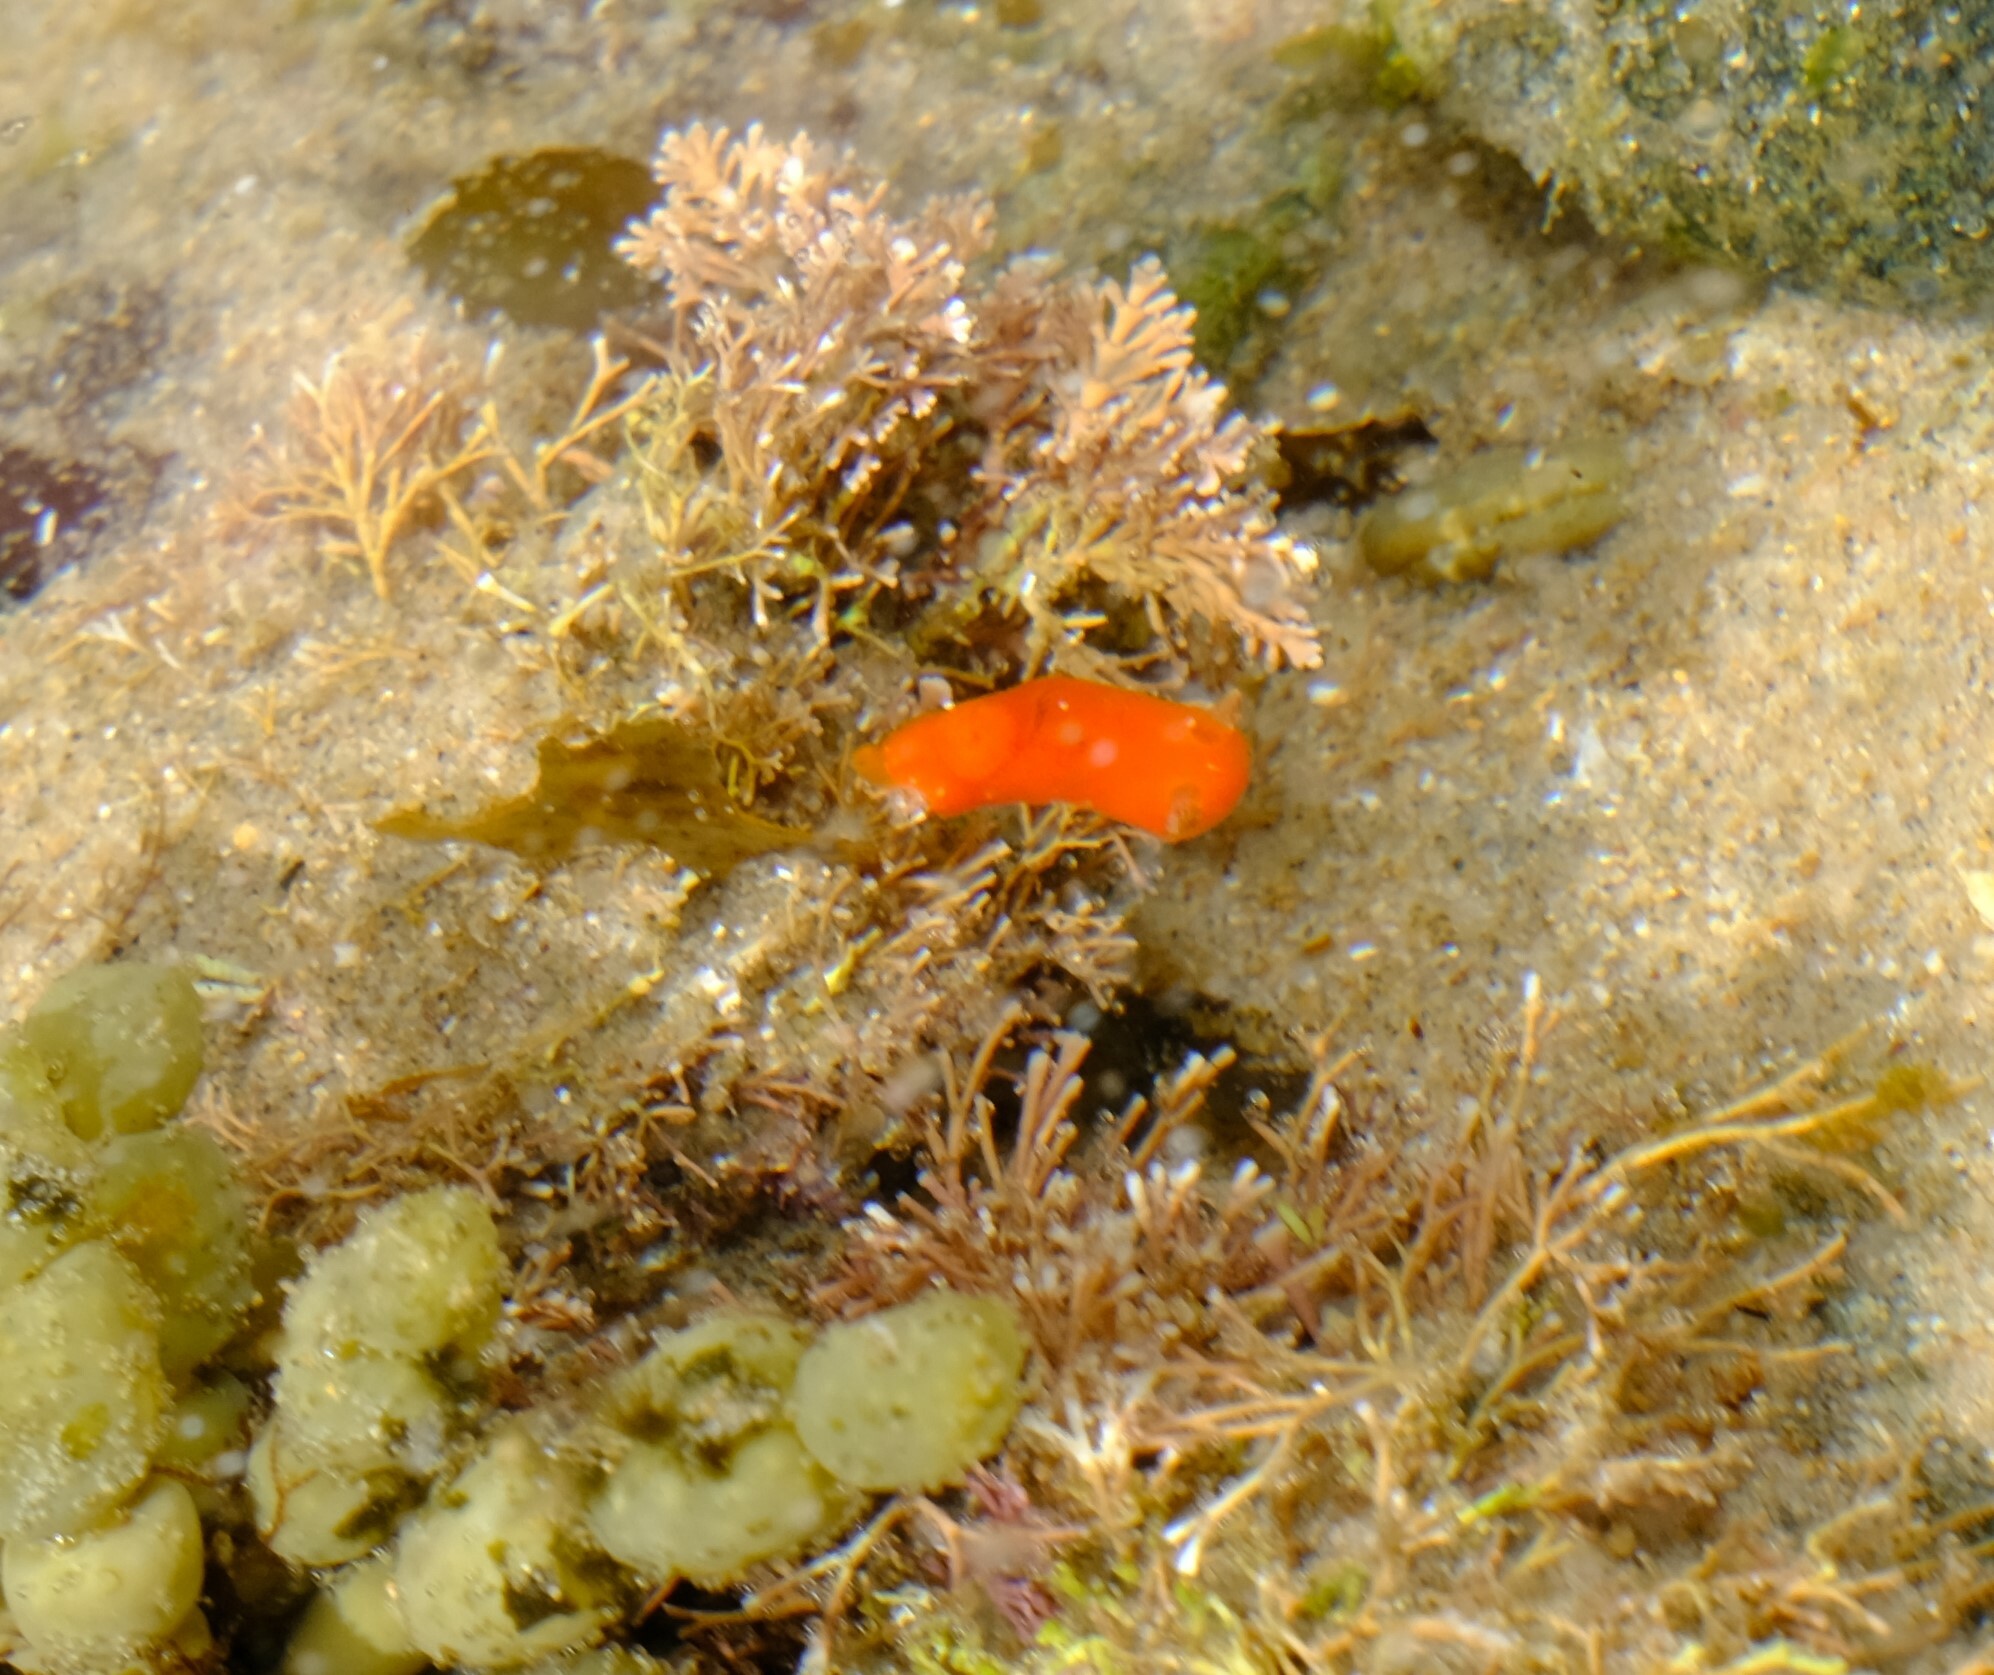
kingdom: Animalia
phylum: Mollusca
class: Gastropoda
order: Nudibranchia
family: Discodorididae
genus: Rostanga
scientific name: Rostanga arbutus
